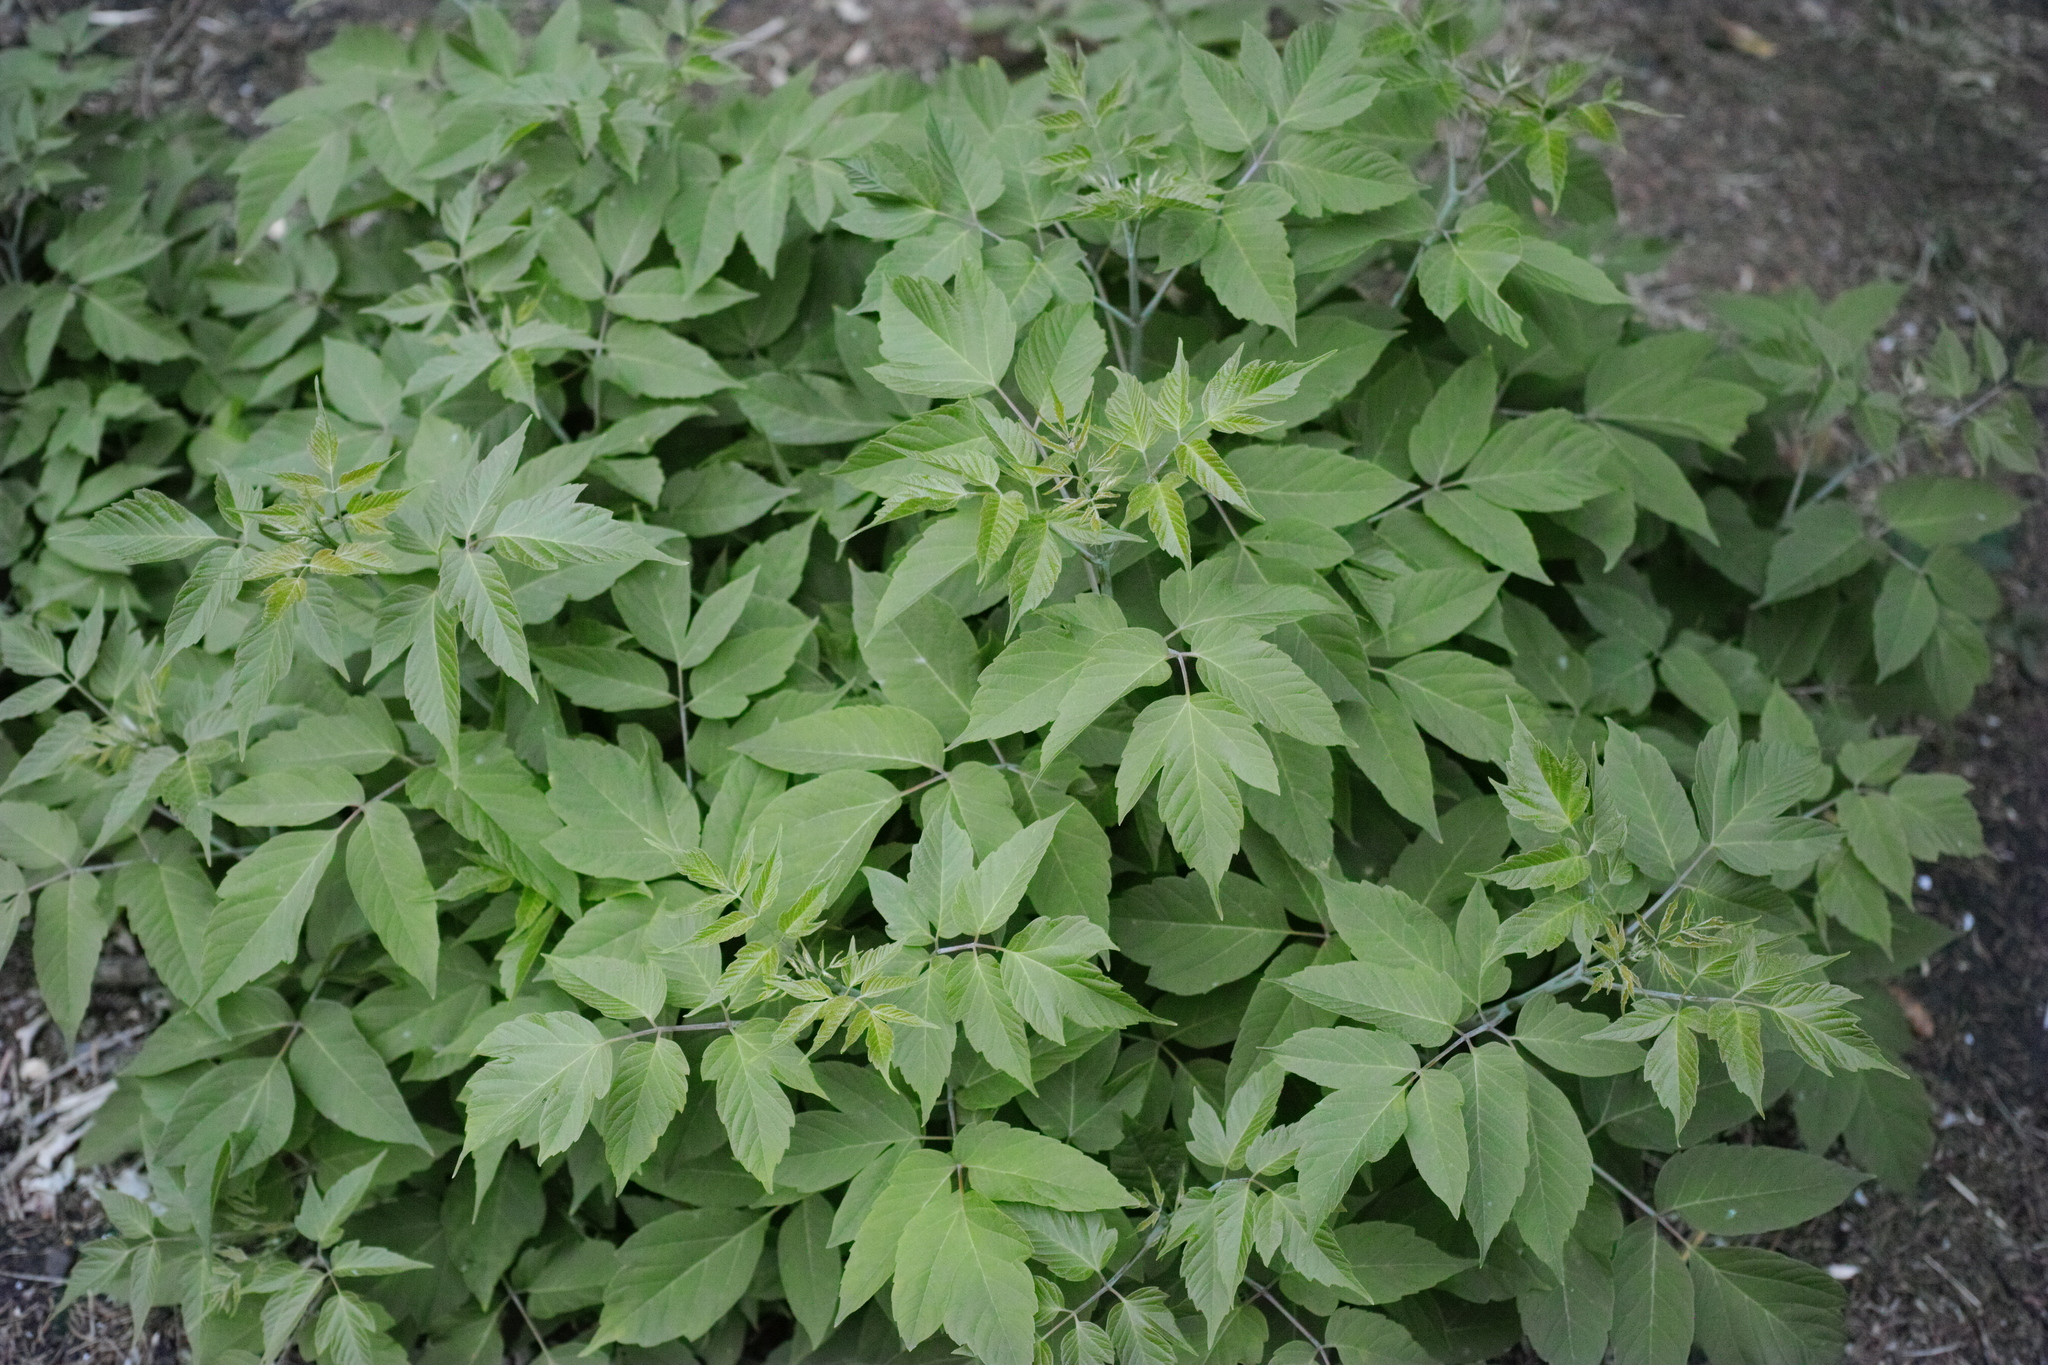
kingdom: Plantae
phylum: Tracheophyta
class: Magnoliopsida
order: Sapindales
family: Sapindaceae
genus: Acer
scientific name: Acer negundo
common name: Ashleaf maple
